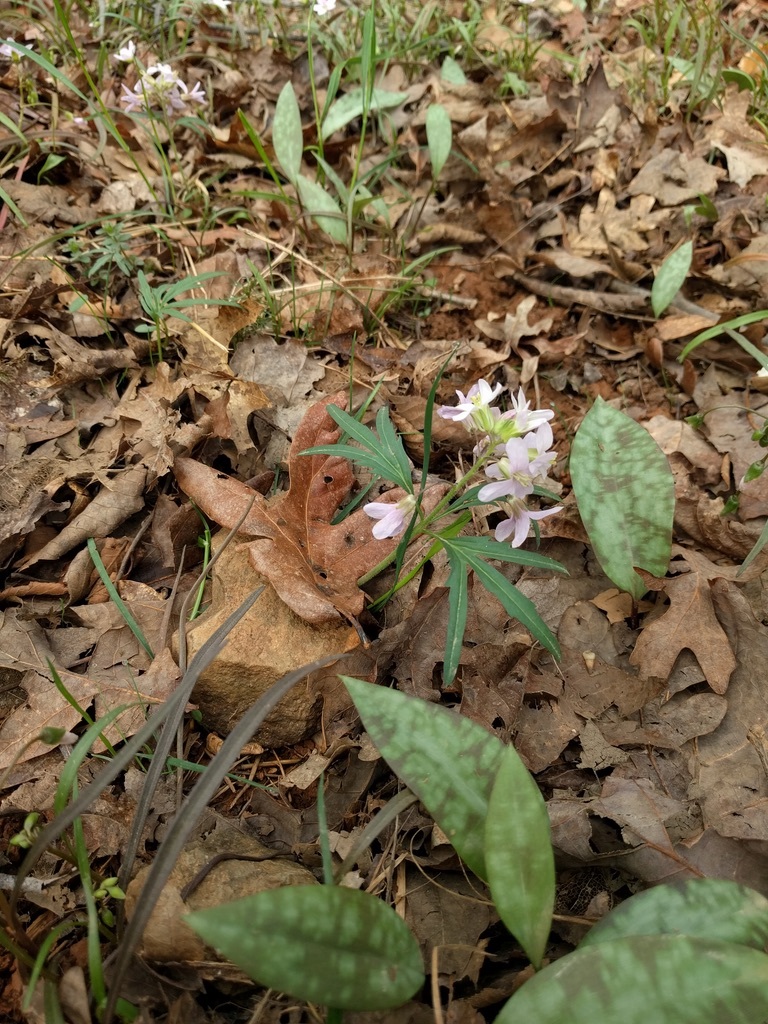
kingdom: Plantae
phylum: Tracheophyta
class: Magnoliopsida
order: Brassicales
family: Brassicaceae
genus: Cardamine
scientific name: Cardamine concatenata
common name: Cut-leaf toothcup
